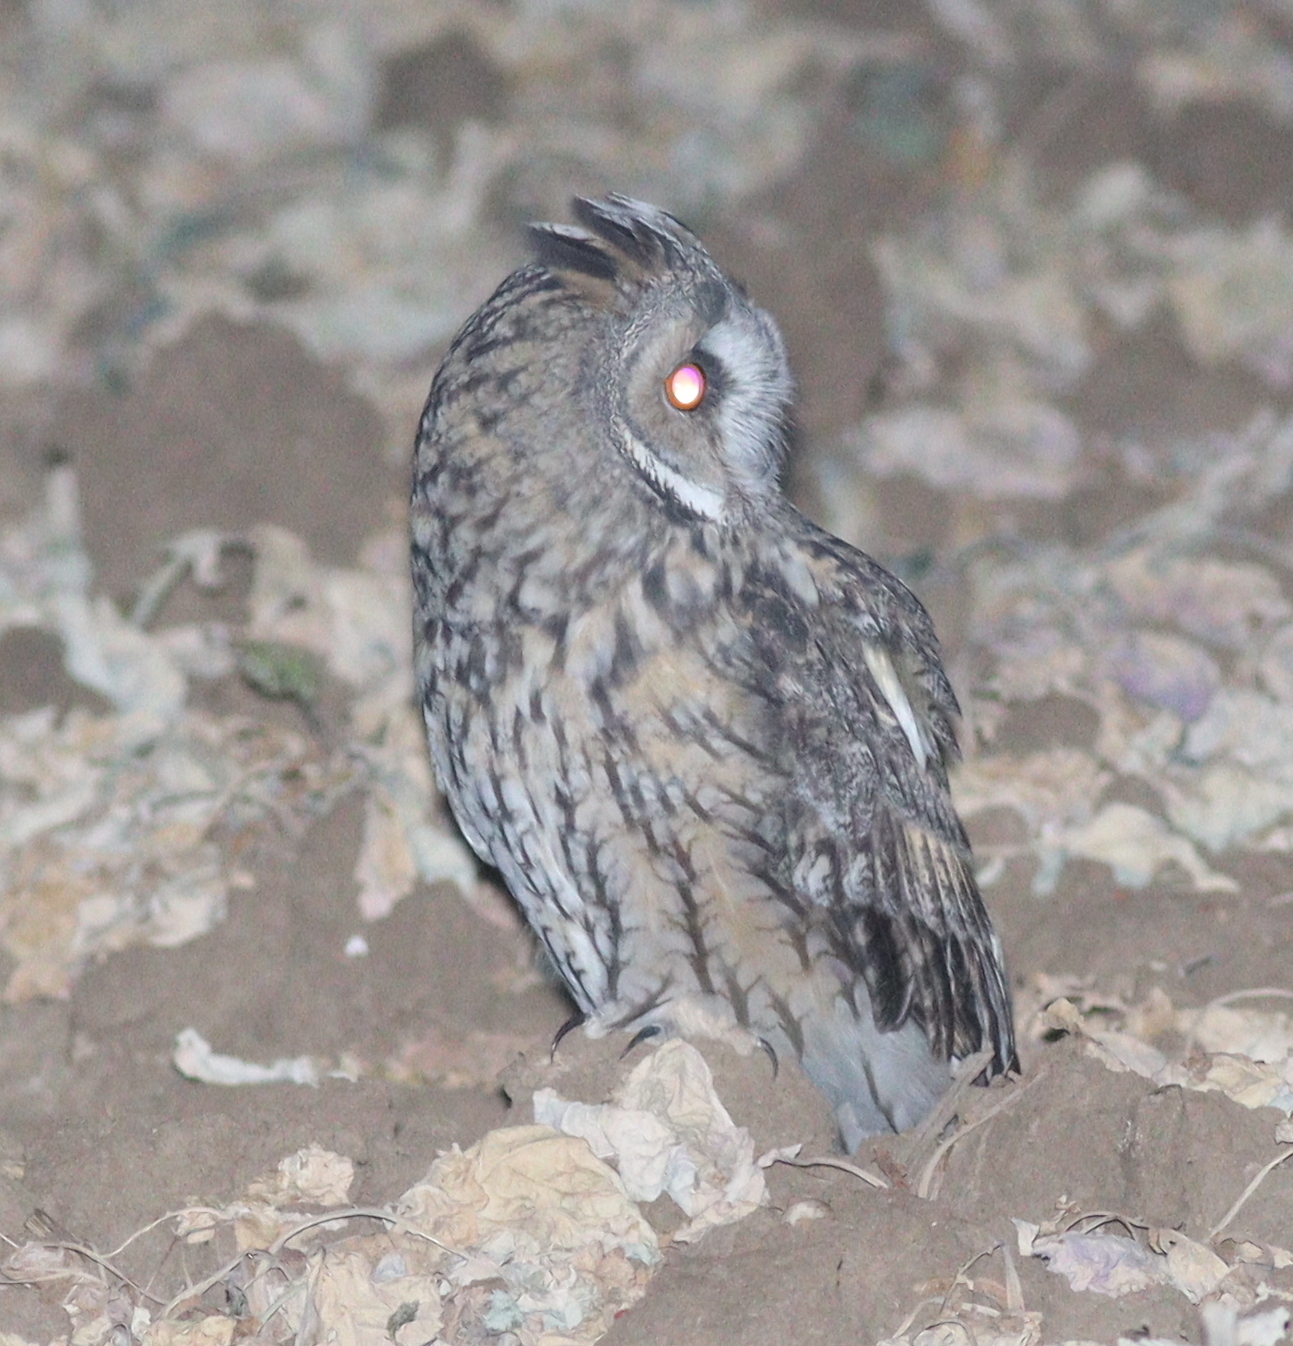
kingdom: Animalia
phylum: Chordata
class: Aves
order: Strigiformes
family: Strigidae
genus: Asio
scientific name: Asio otus
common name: Long-eared owl
